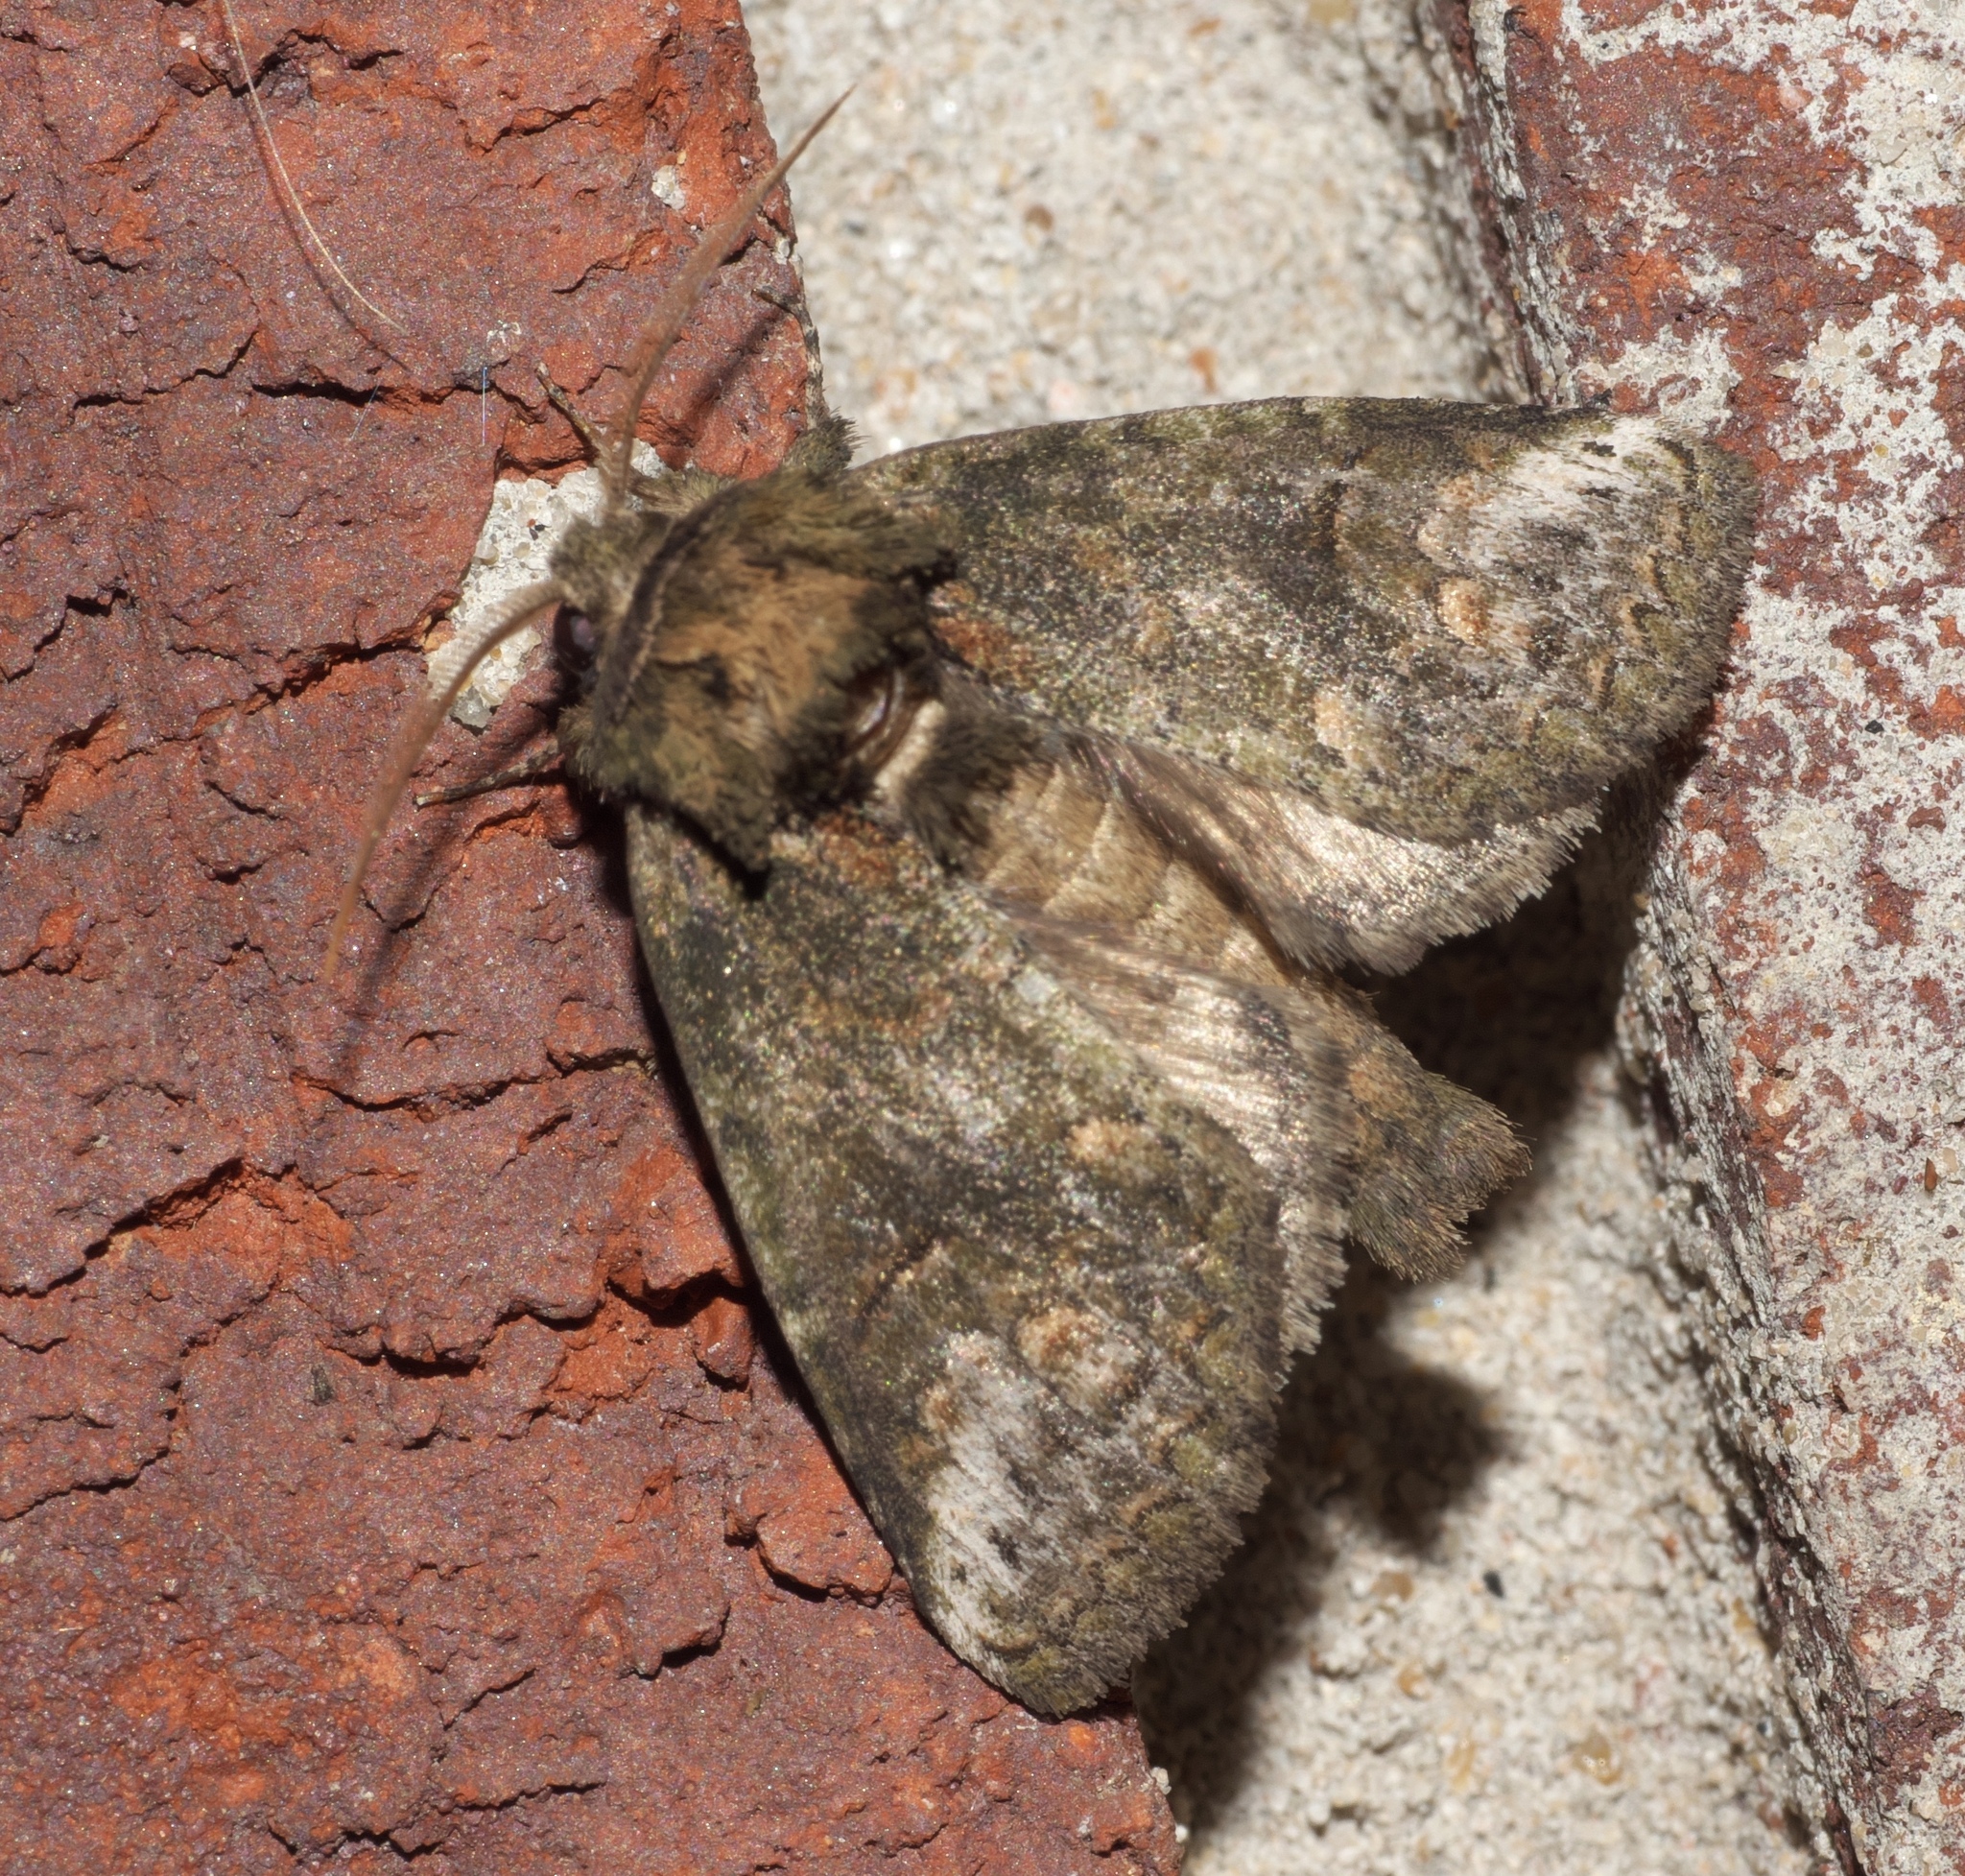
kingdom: Animalia
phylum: Arthropoda
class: Insecta
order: Lepidoptera
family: Notodontidae
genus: Rifargia
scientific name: Rifargia
